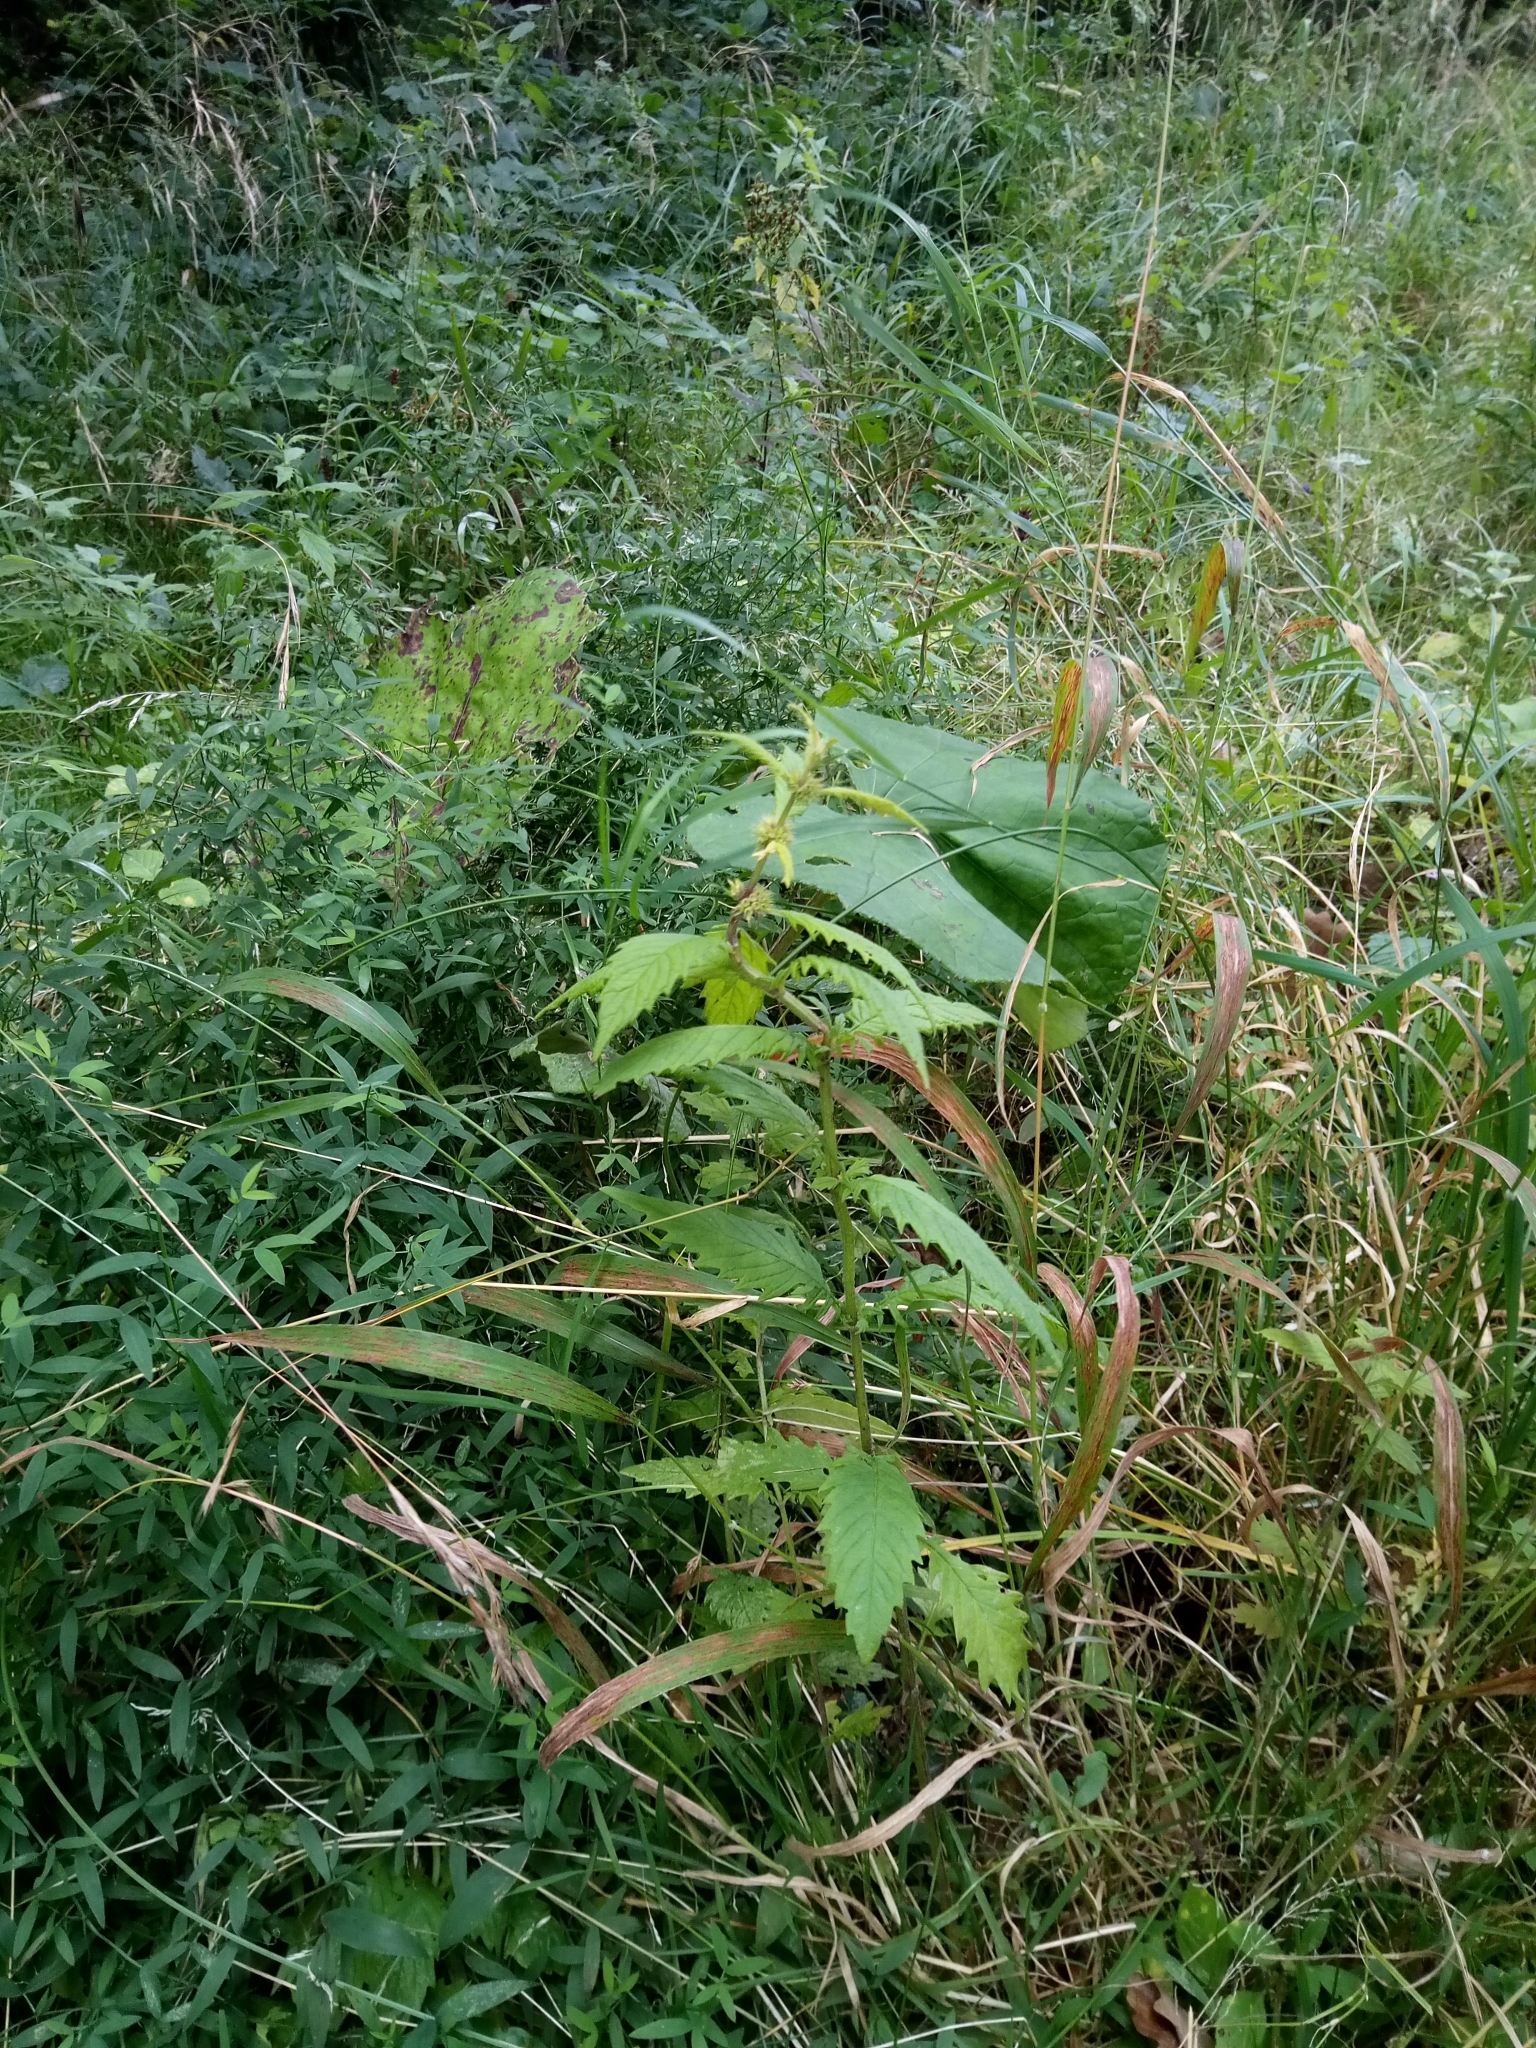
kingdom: Plantae
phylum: Tracheophyta
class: Magnoliopsida
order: Lamiales
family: Lamiaceae
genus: Lycopus
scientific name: Lycopus europaeus
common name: European bugleweed
